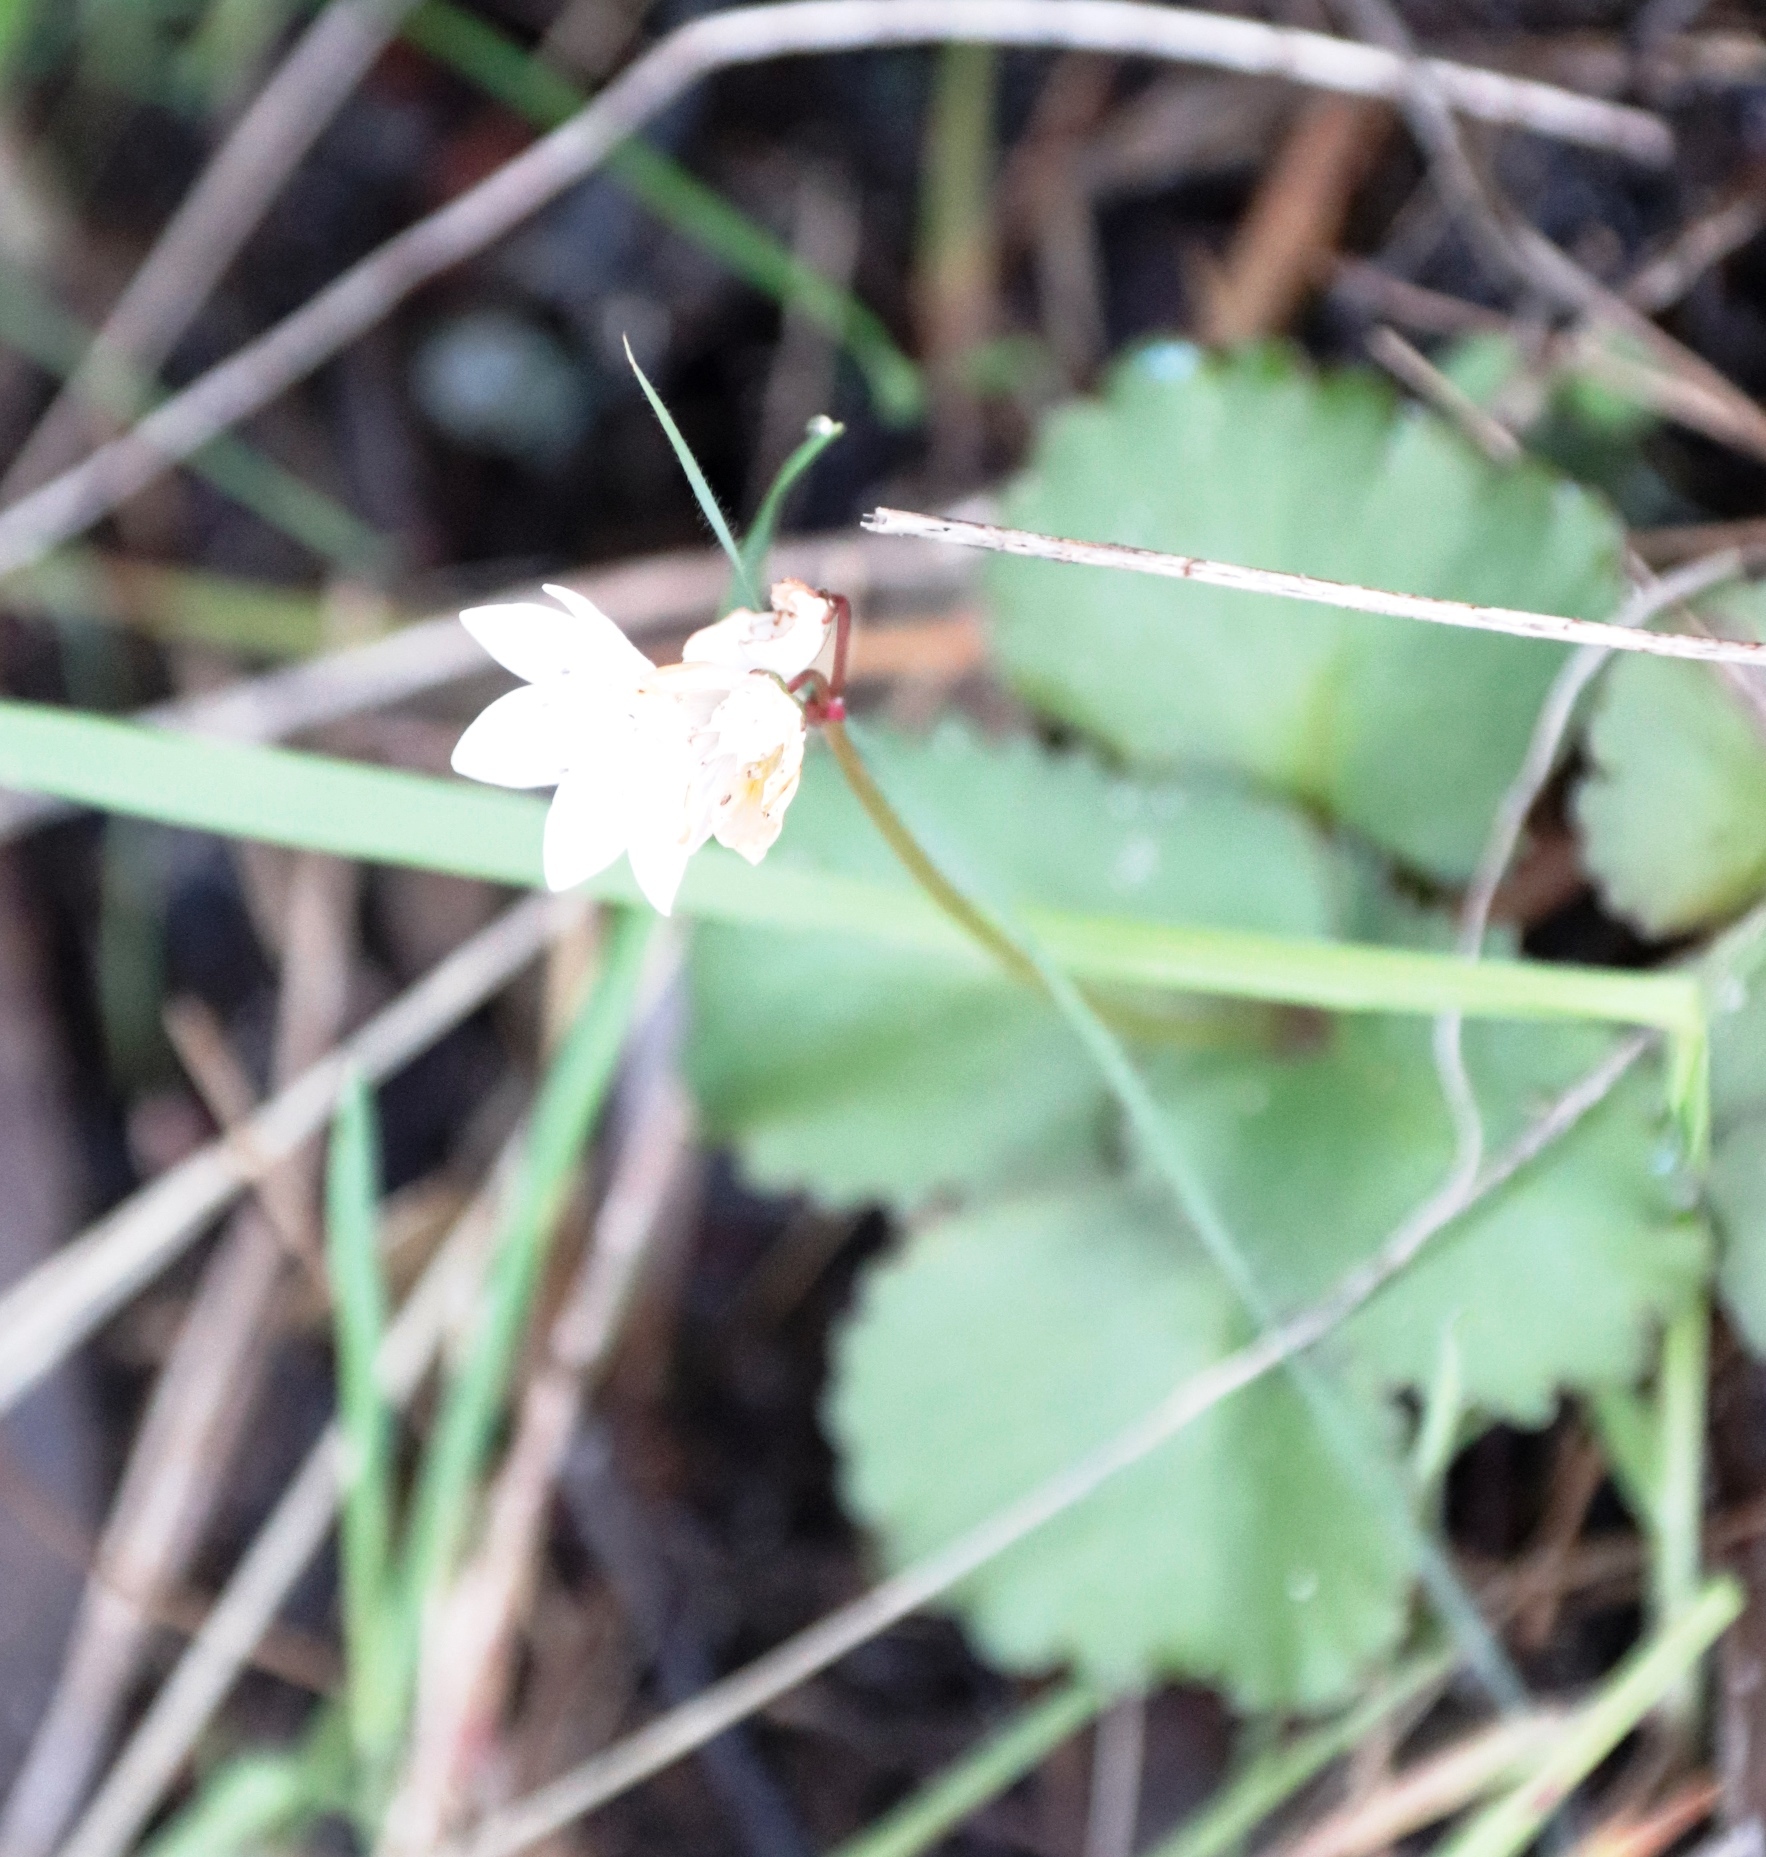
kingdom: Plantae
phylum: Tracheophyta
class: Magnoliopsida
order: Saxifragales
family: Crassulaceae
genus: Crassula
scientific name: Crassula capensis
